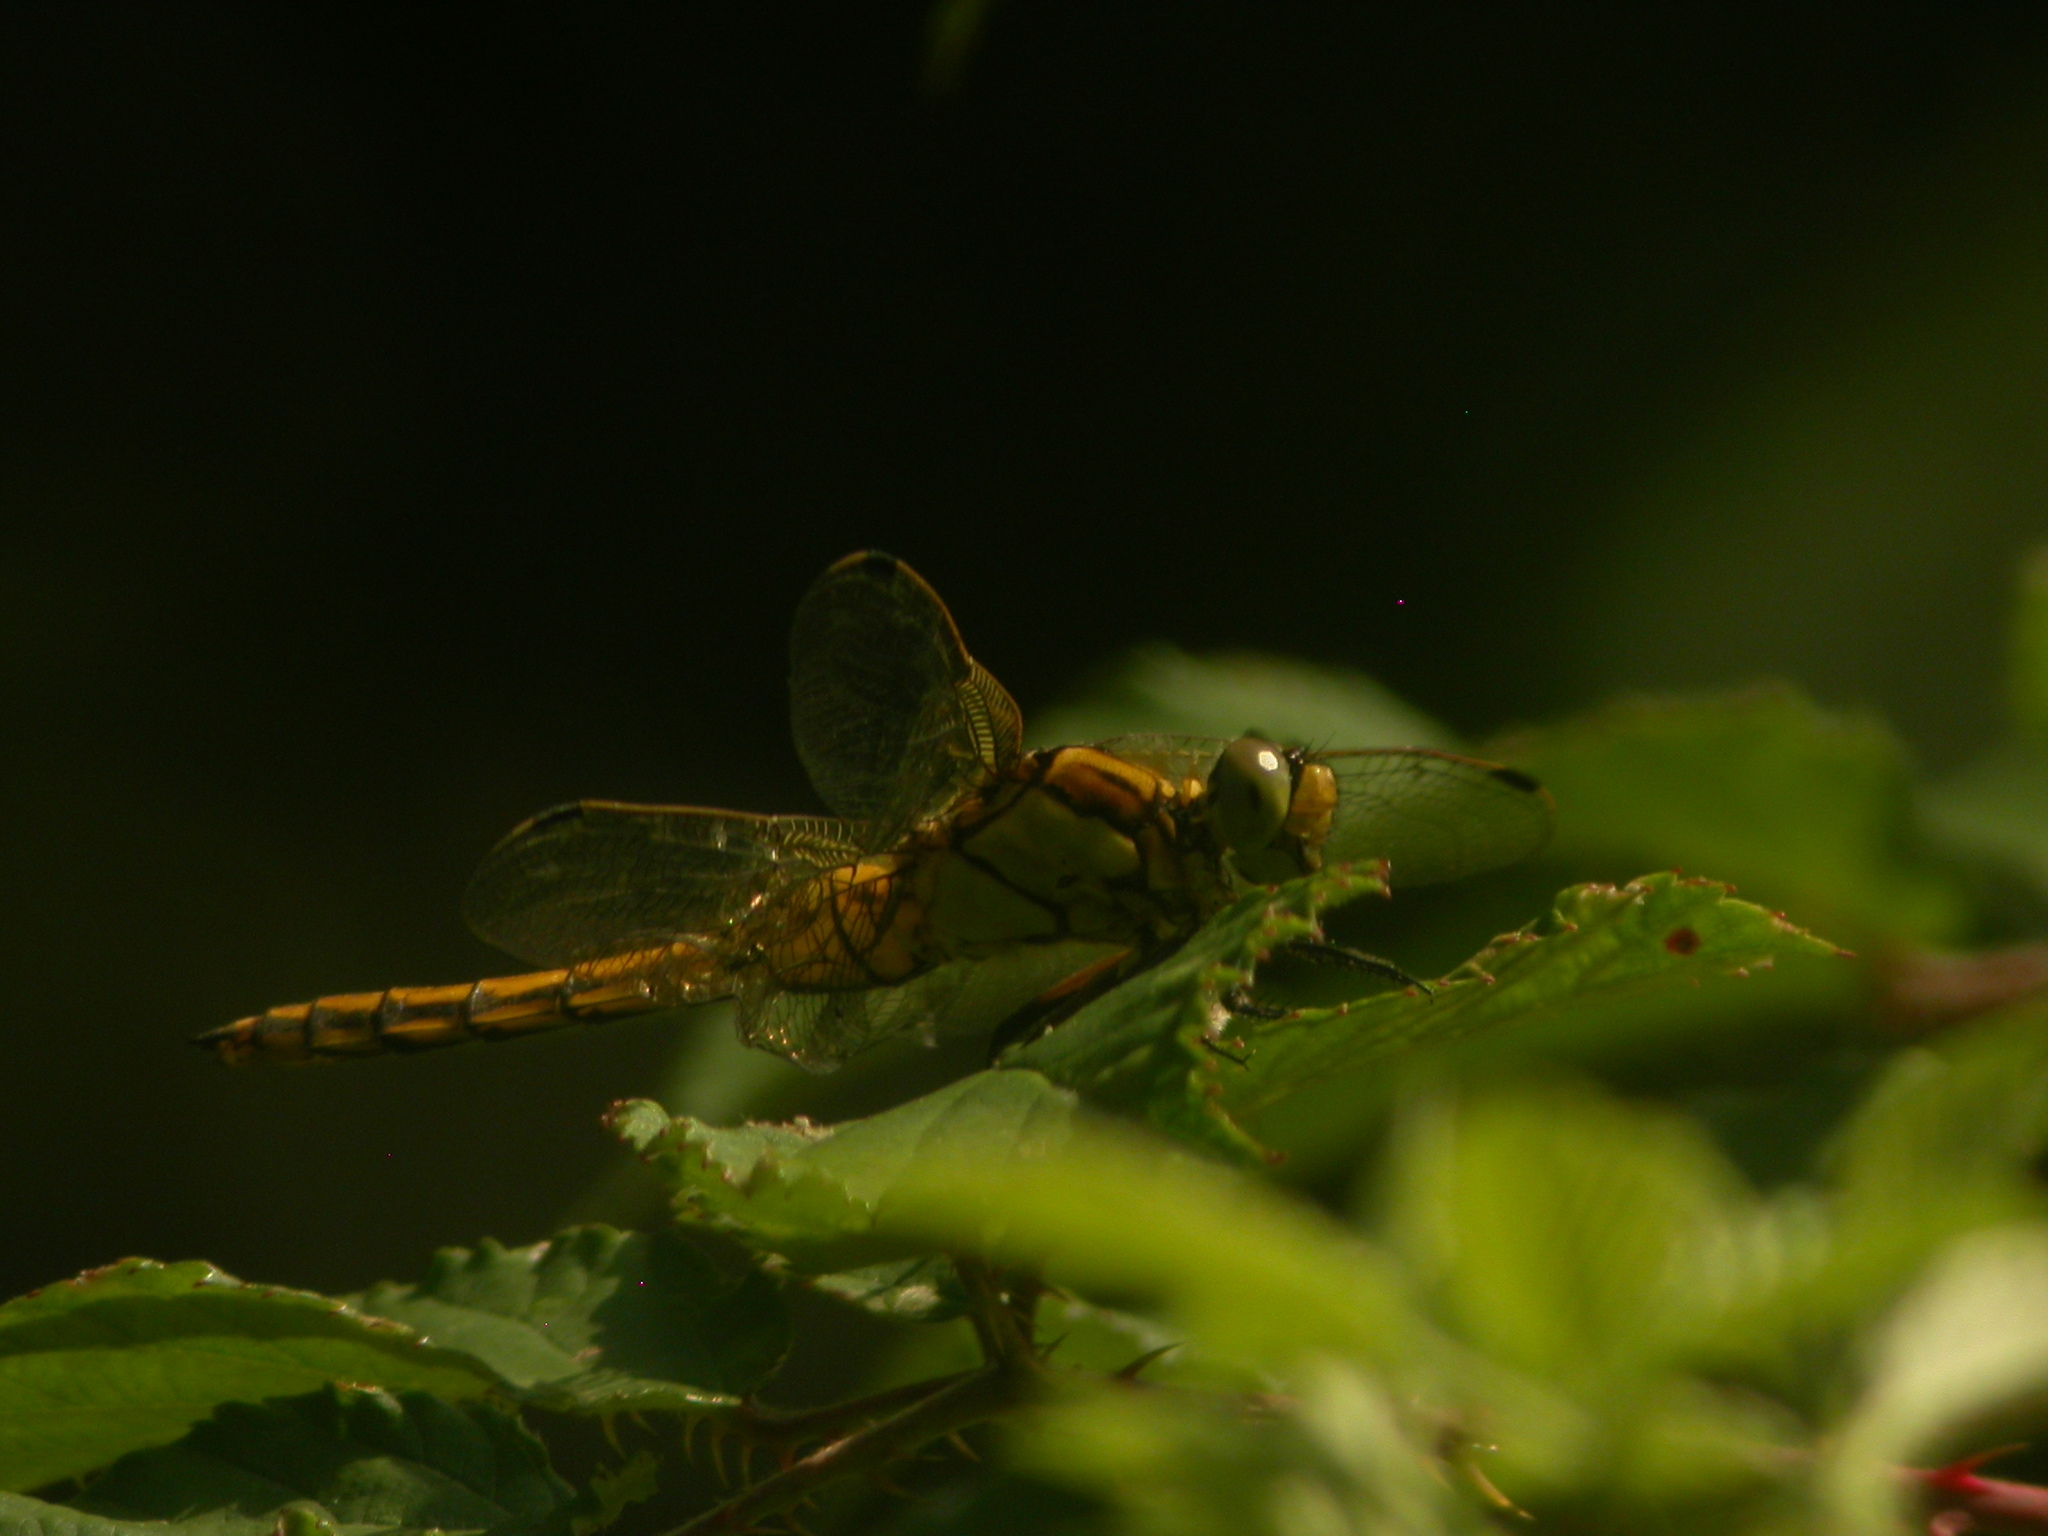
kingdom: Animalia
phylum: Arthropoda
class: Insecta
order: Odonata
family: Libellulidae
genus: Orthetrum
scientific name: Orthetrum cancellatum
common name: Black-tailed skimmer
